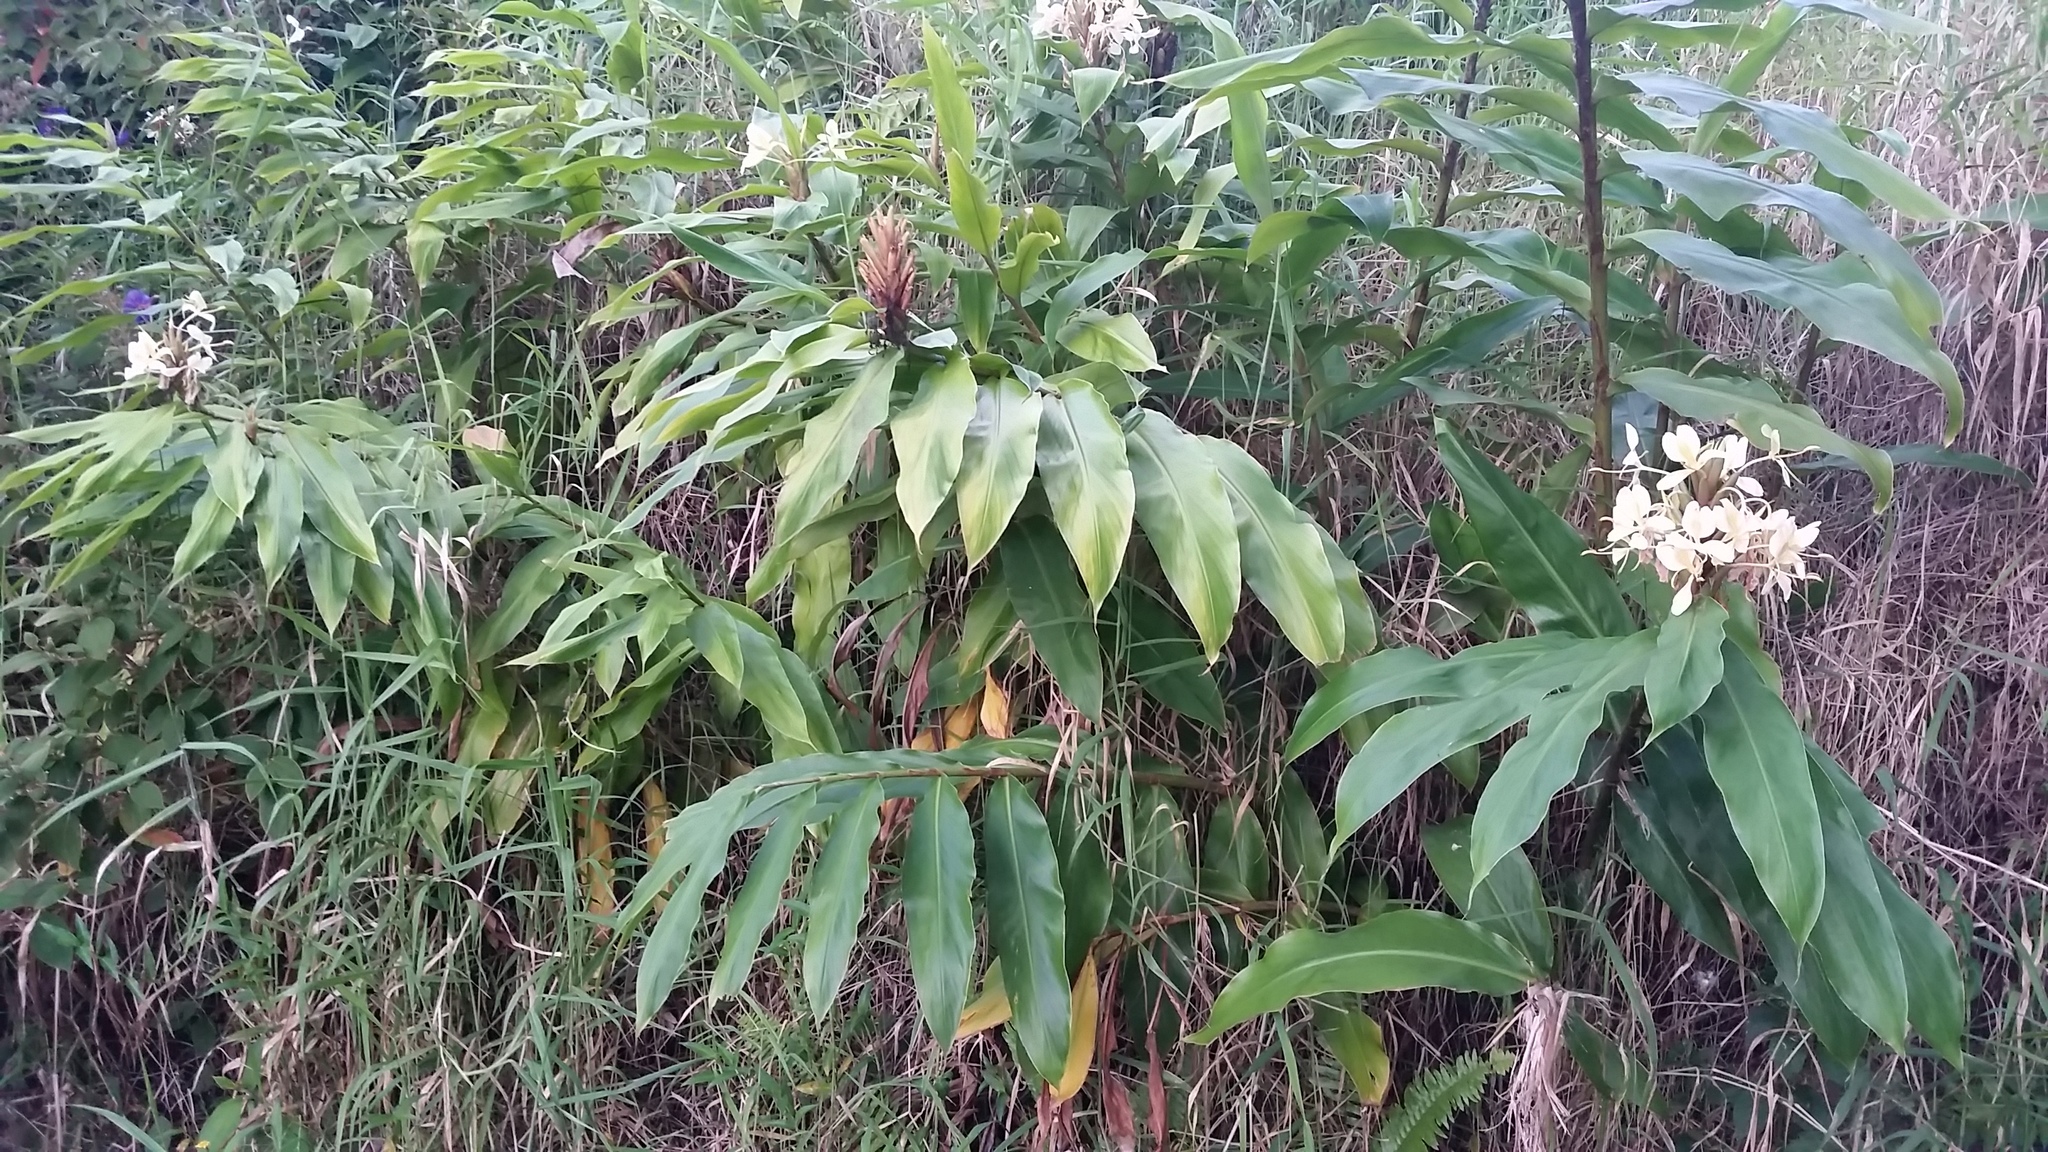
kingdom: Plantae
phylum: Tracheophyta
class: Liliopsida
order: Zingiberales
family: Zingiberaceae
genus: Hedychium
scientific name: Hedychium flavescens
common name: Yellow ginger
